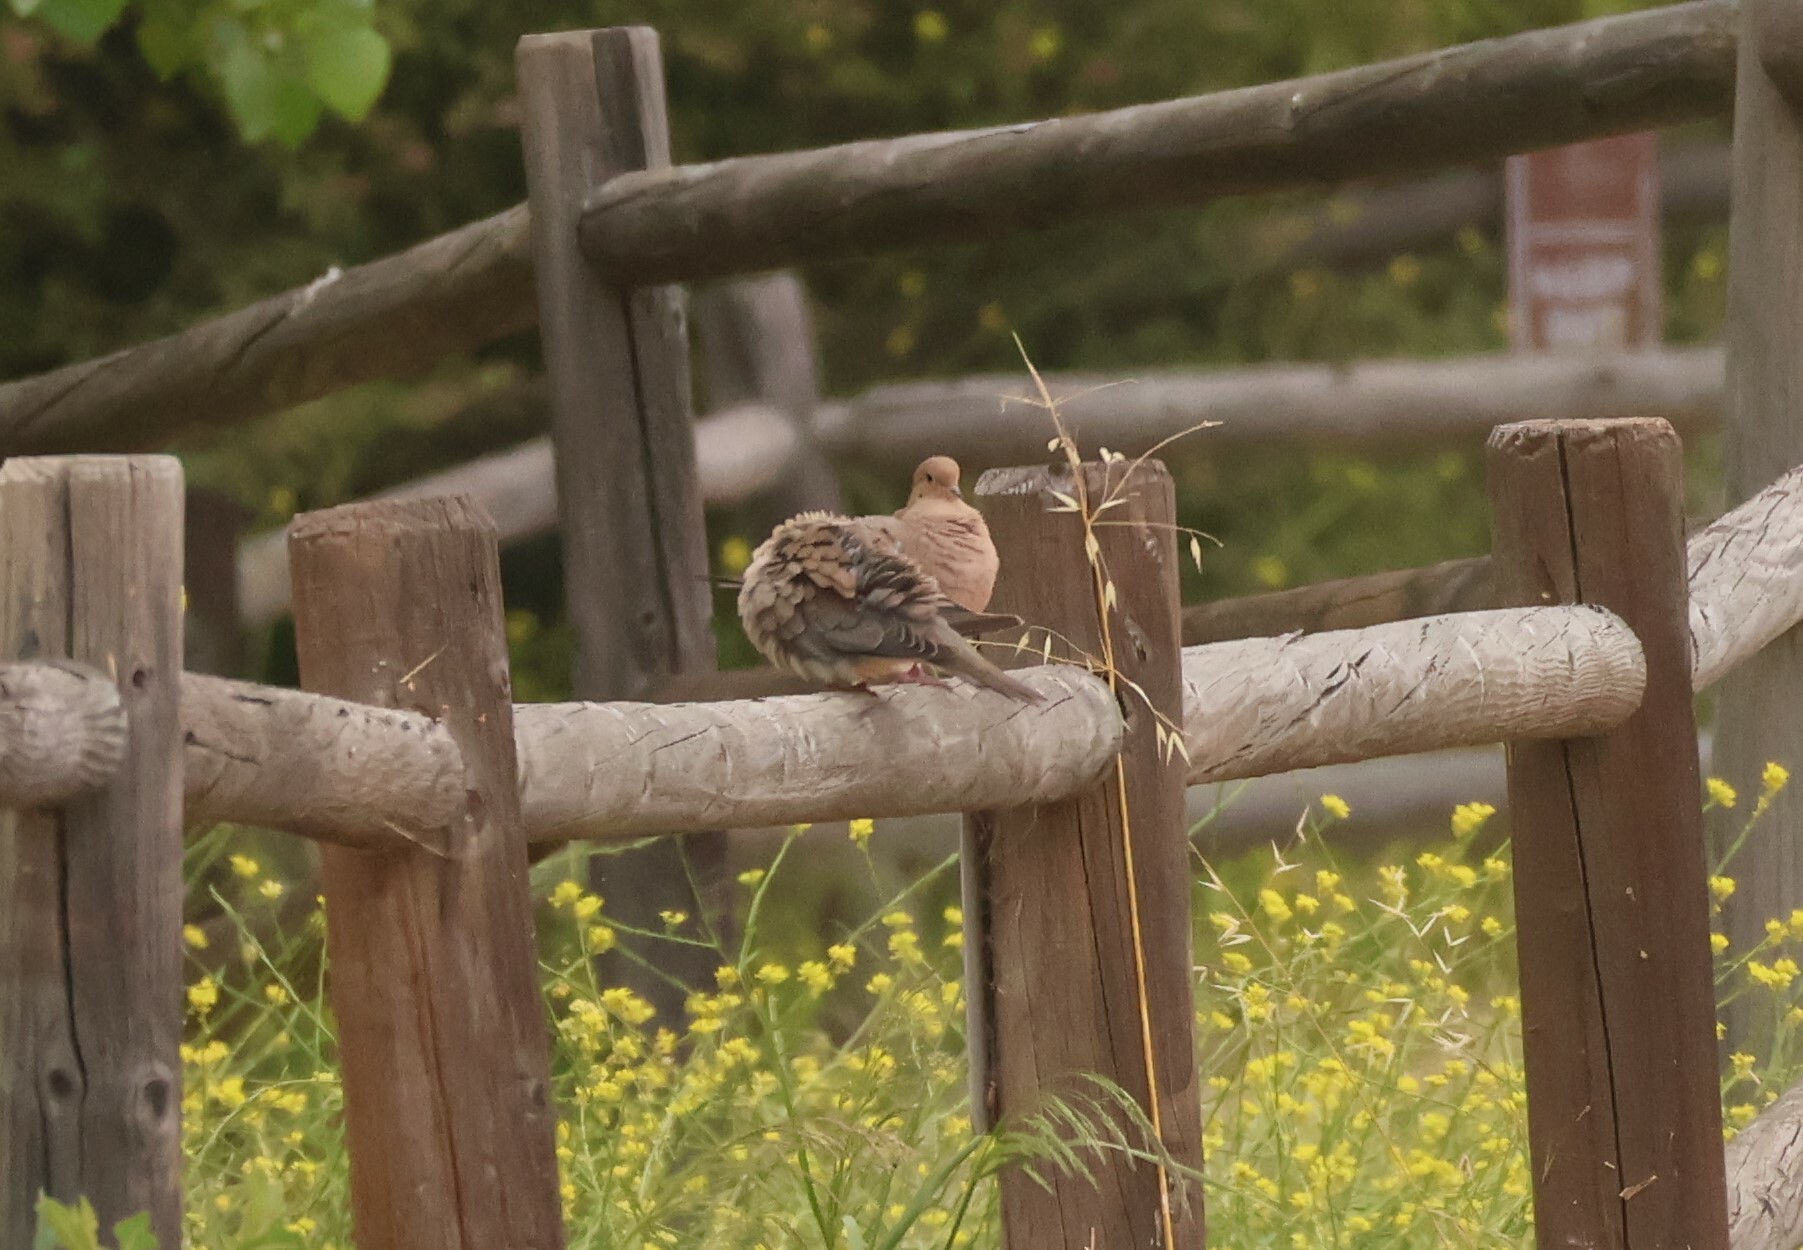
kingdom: Animalia
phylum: Chordata
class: Aves
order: Columbiformes
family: Columbidae
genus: Zenaida
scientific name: Zenaida macroura
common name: Mourning dove
